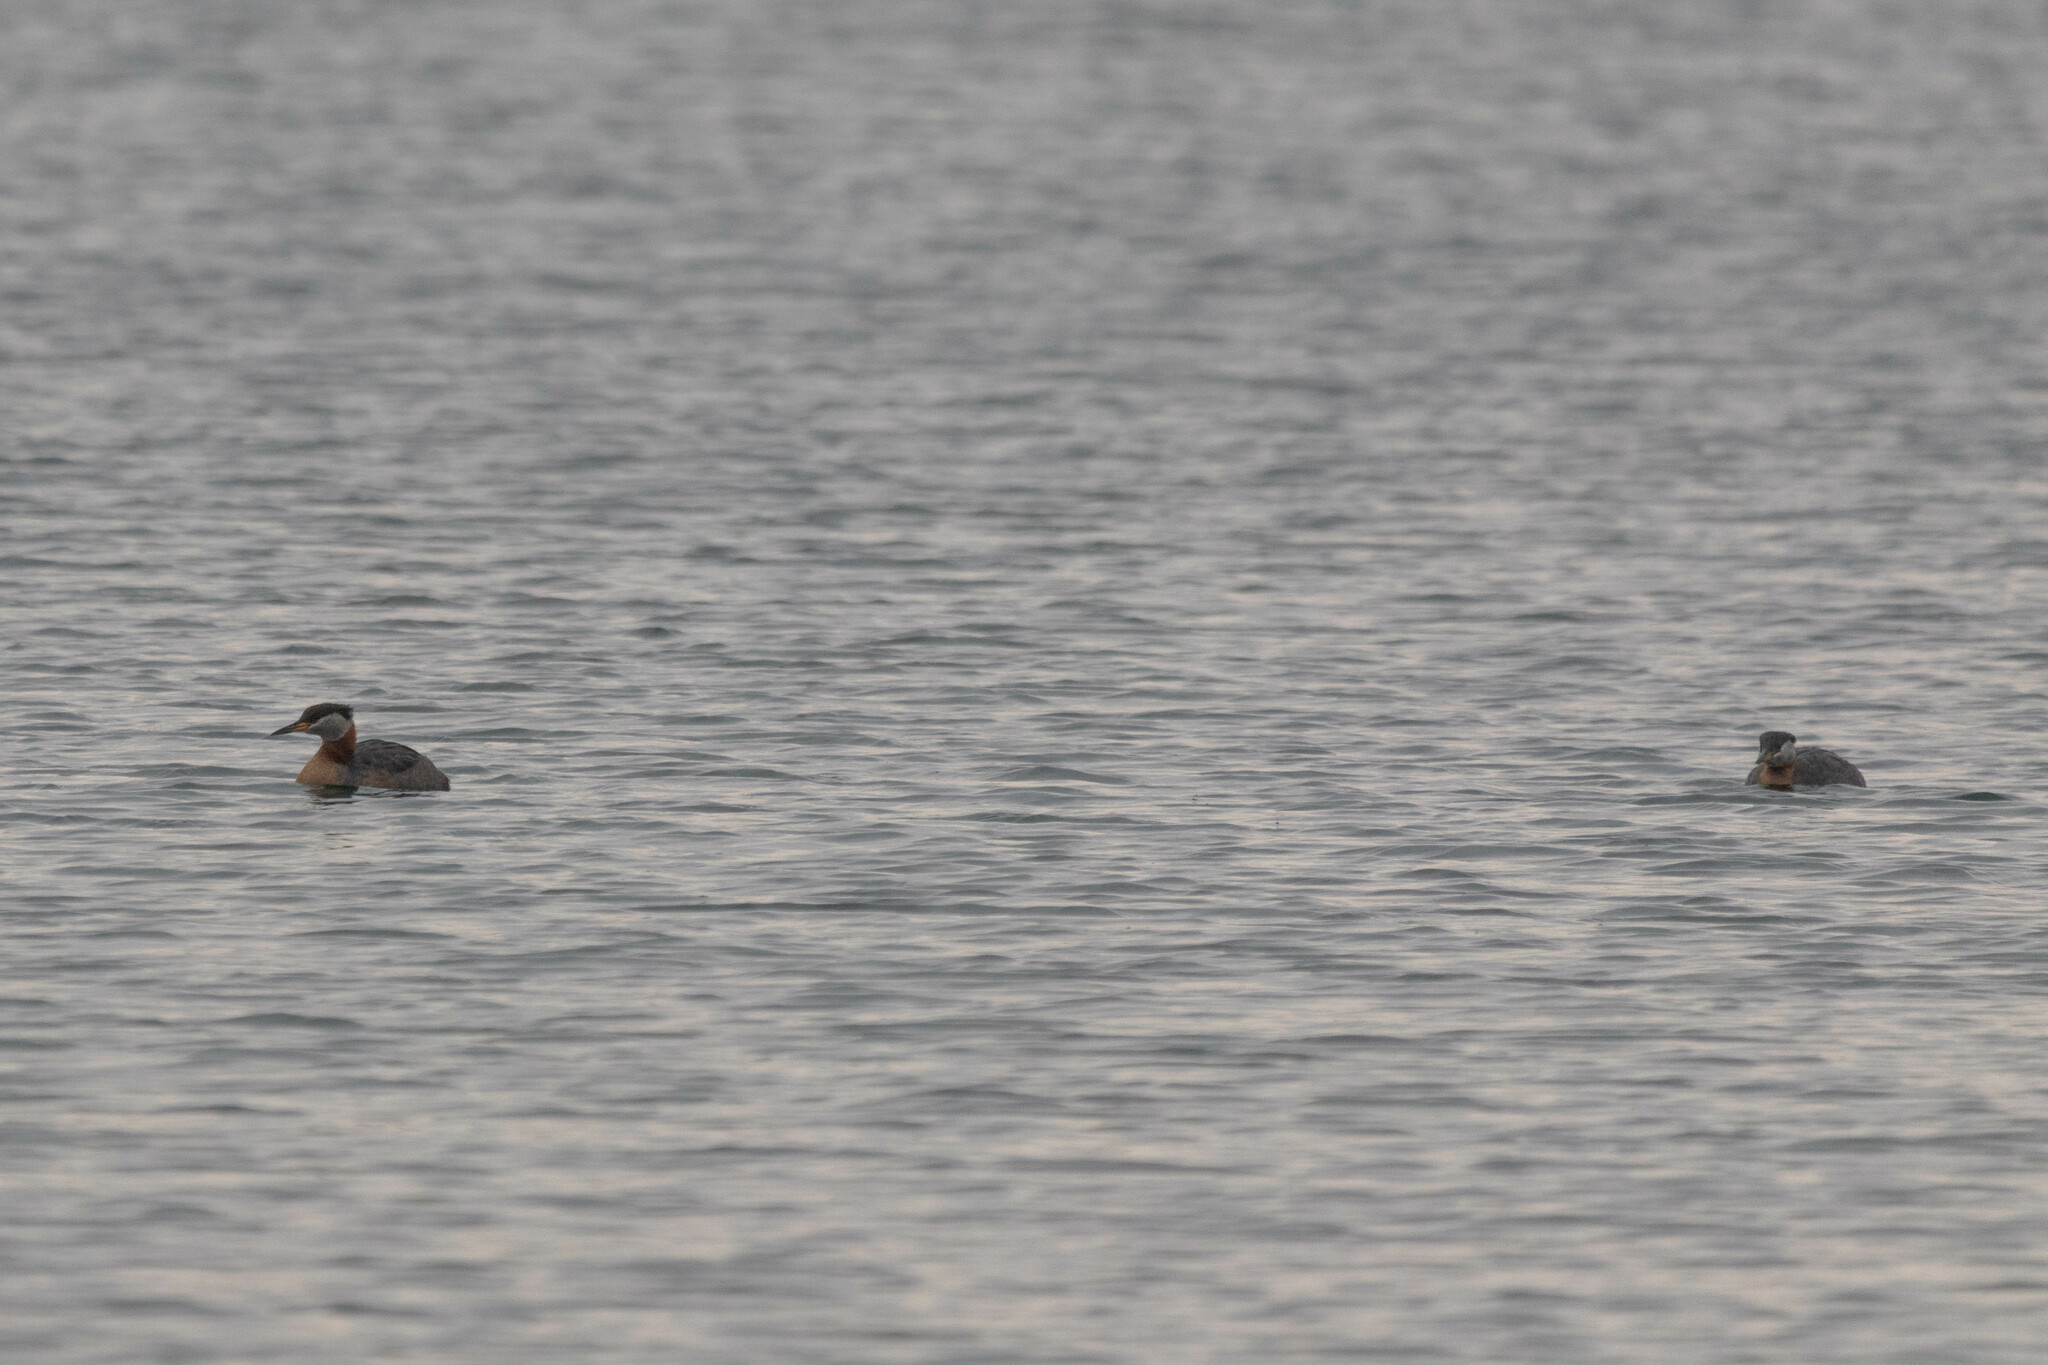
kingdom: Animalia
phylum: Chordata
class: Aves
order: Podicipediformes
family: Podicipedidae
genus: Podiceps
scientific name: Podiceps grisegena
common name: Red-necked grebe
